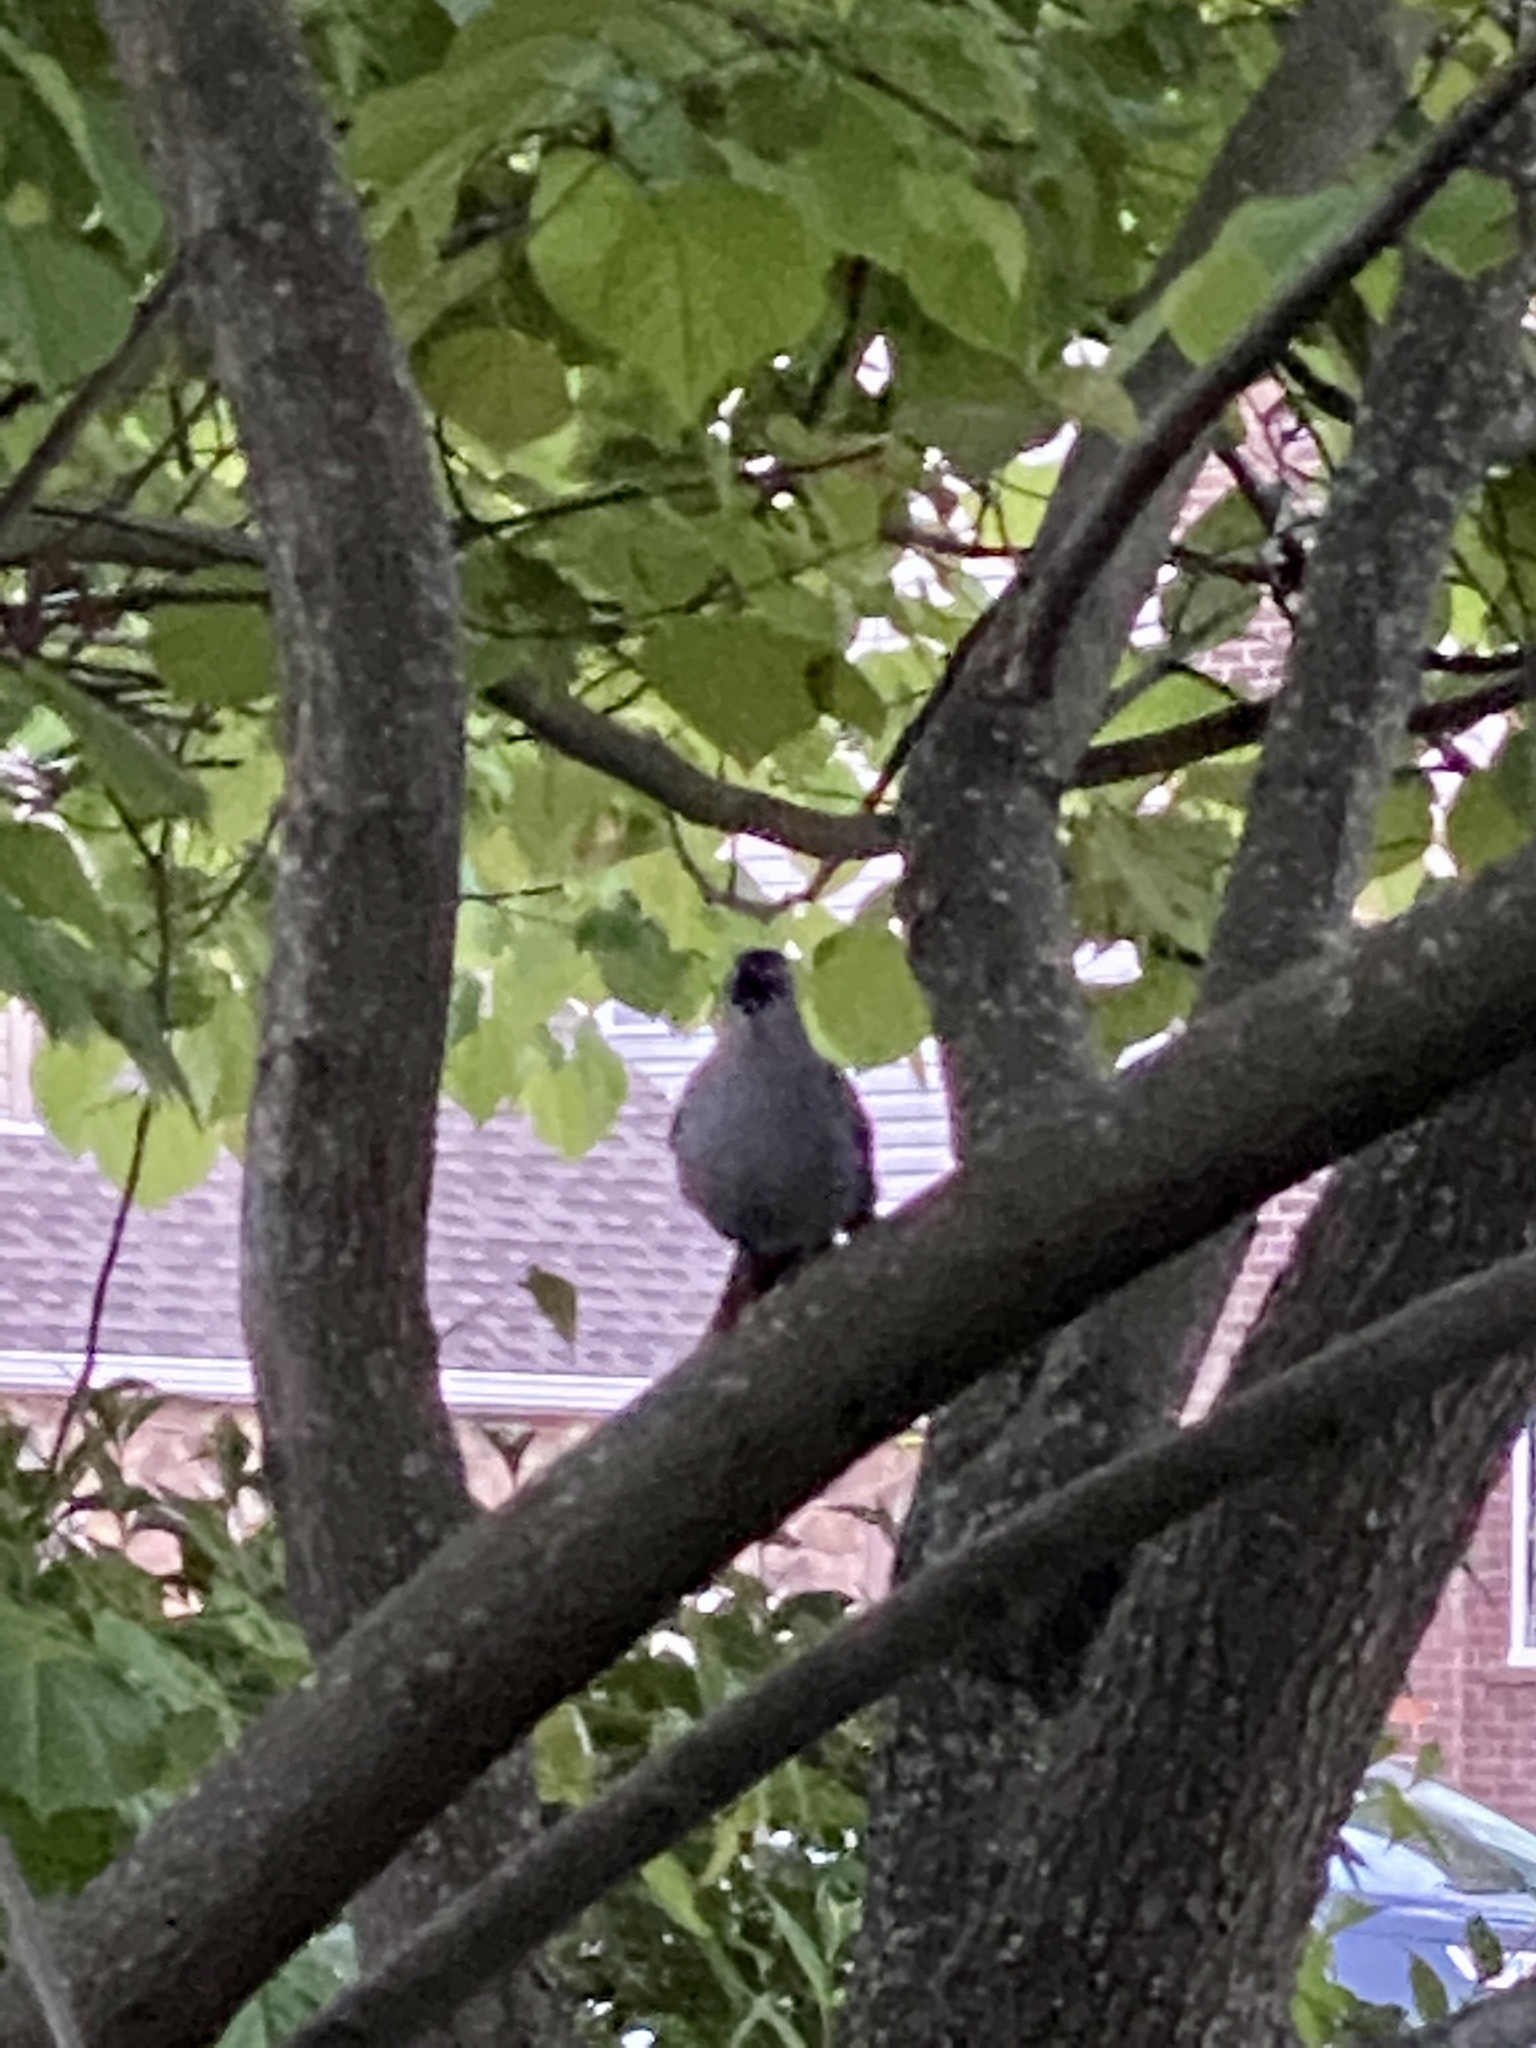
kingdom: Animalia
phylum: Chordata
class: Aves
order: Passeriformes
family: Mimidae
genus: Dumetella
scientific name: Dumetella carolinensis
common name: Gray catbird
